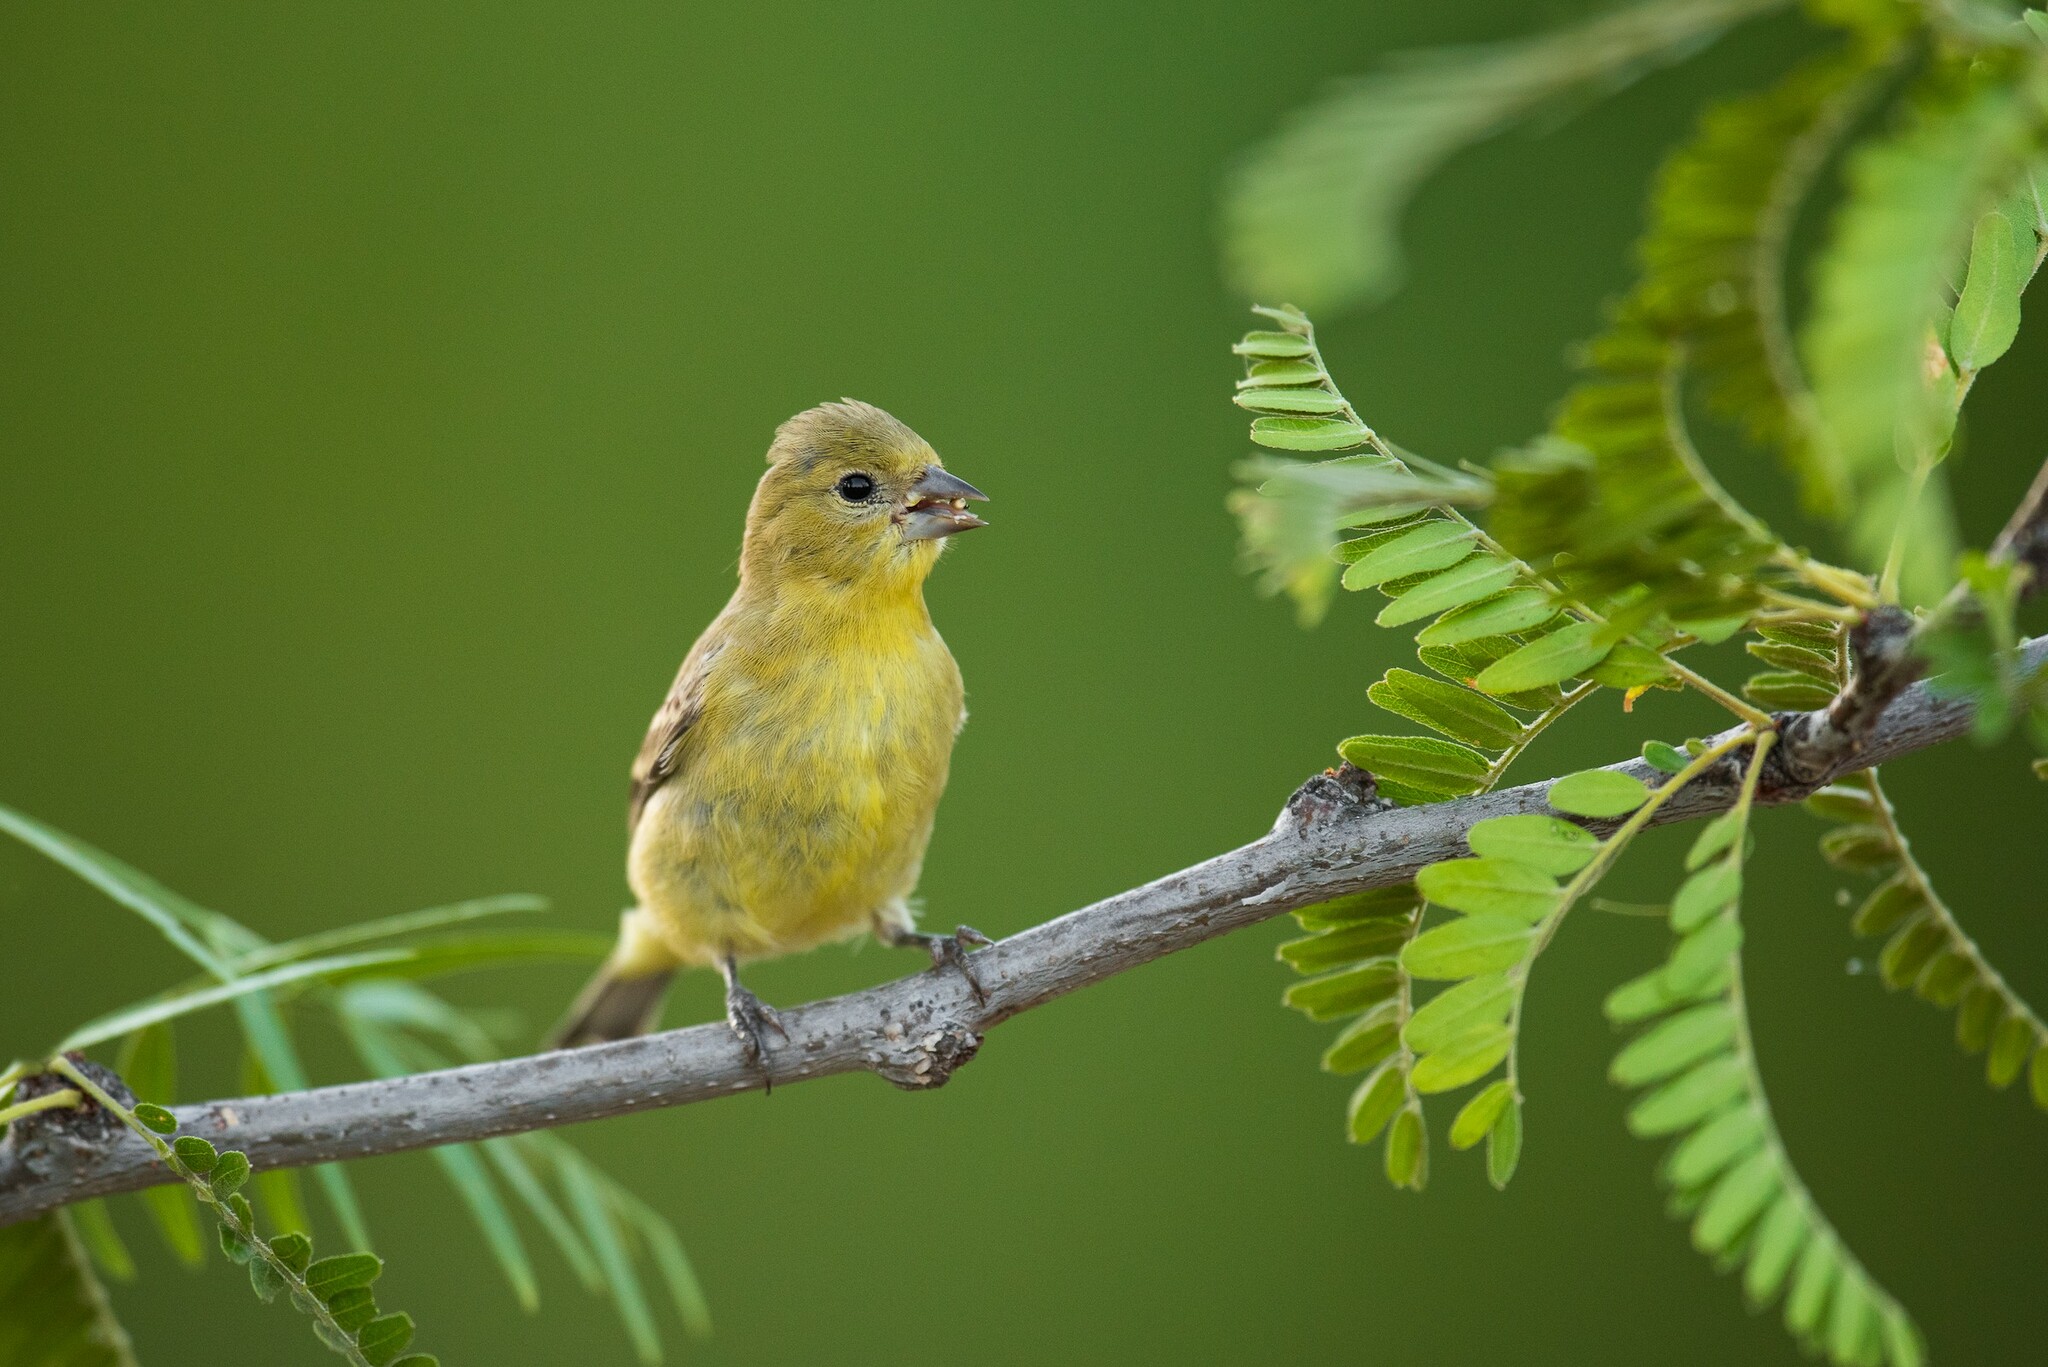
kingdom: Animalia
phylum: Chordata
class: Aves
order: Passeriformes
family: Fringillidae
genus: Spinus
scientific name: Spinus psaltria
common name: Lesser goldfinch
